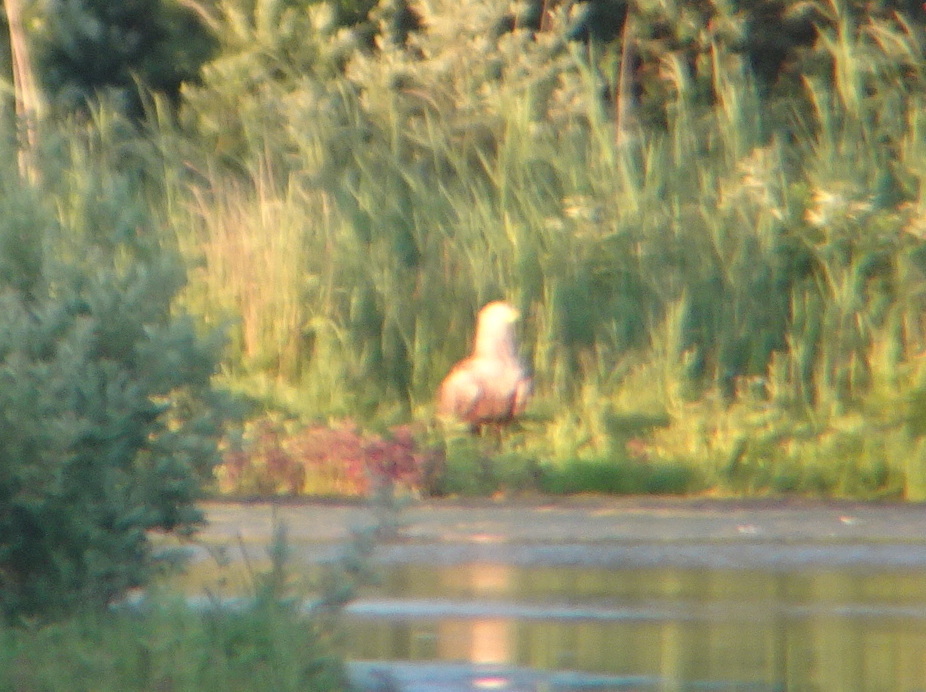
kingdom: Animalia
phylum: Chordata
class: Aves
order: Accipitriformes
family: Accipitridae
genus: Haliaeetus
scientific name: Haliaeetus albicilla
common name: White-tailed eagle
